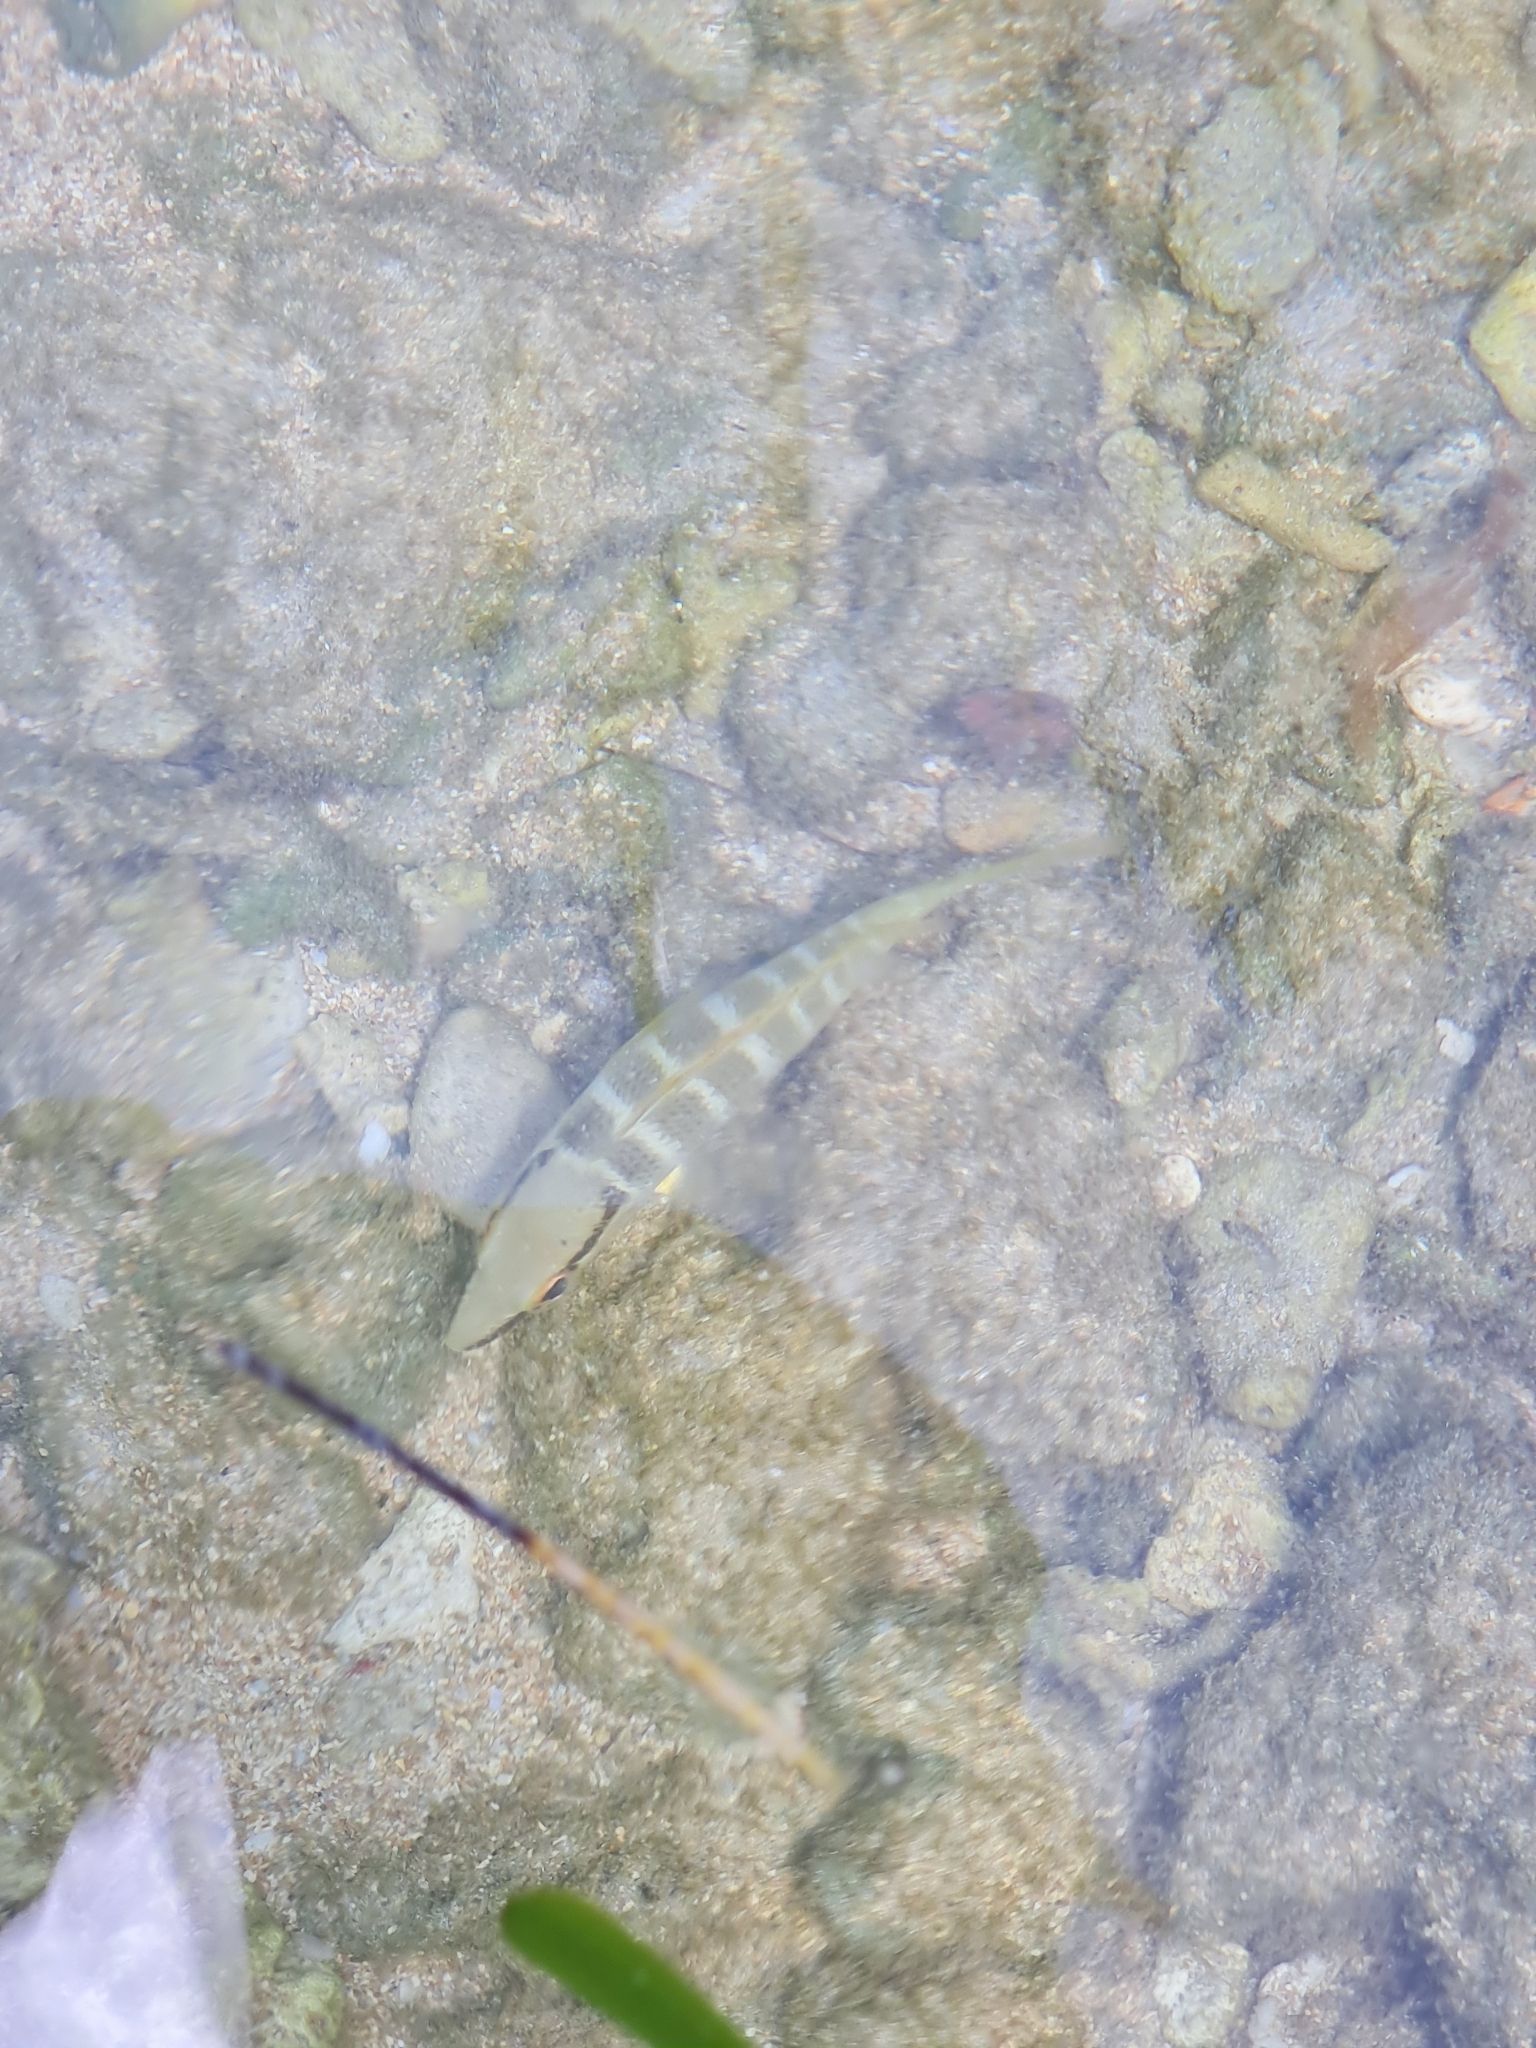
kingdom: Animalia
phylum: Chordata
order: Perciformes
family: Lutjanidae
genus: Lutjanus
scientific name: Lutjanus apodus
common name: Schoolmaster
